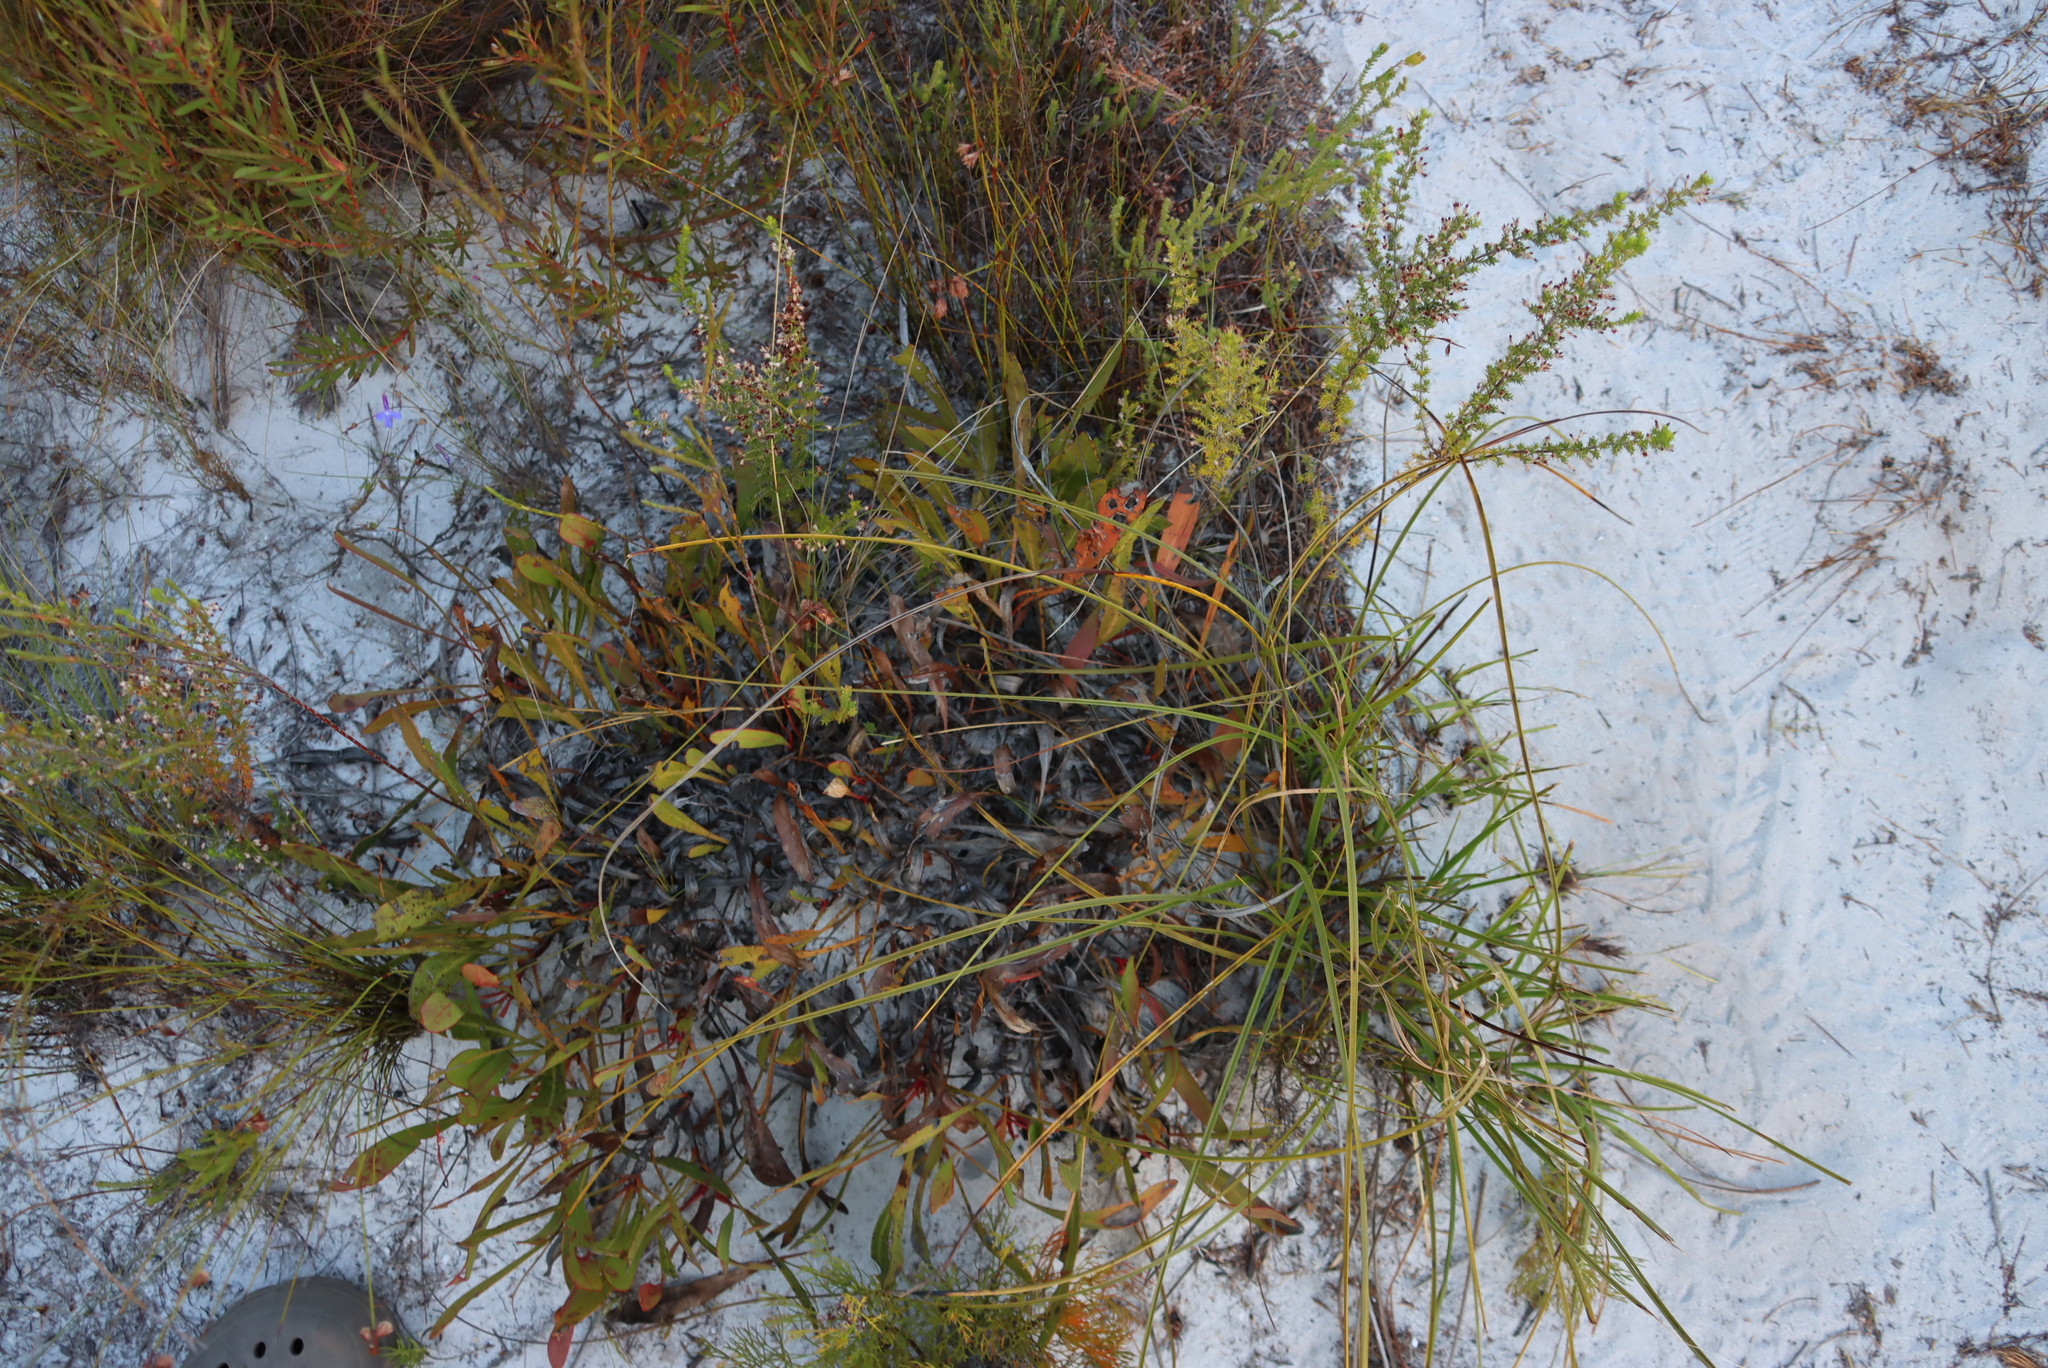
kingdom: Plantae
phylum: Tracheophyta
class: Magnoliopsida
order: Proteales
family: Proteaceae
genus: Protea
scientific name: Protea scabra
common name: Sandpaper-leaf sugarbush
